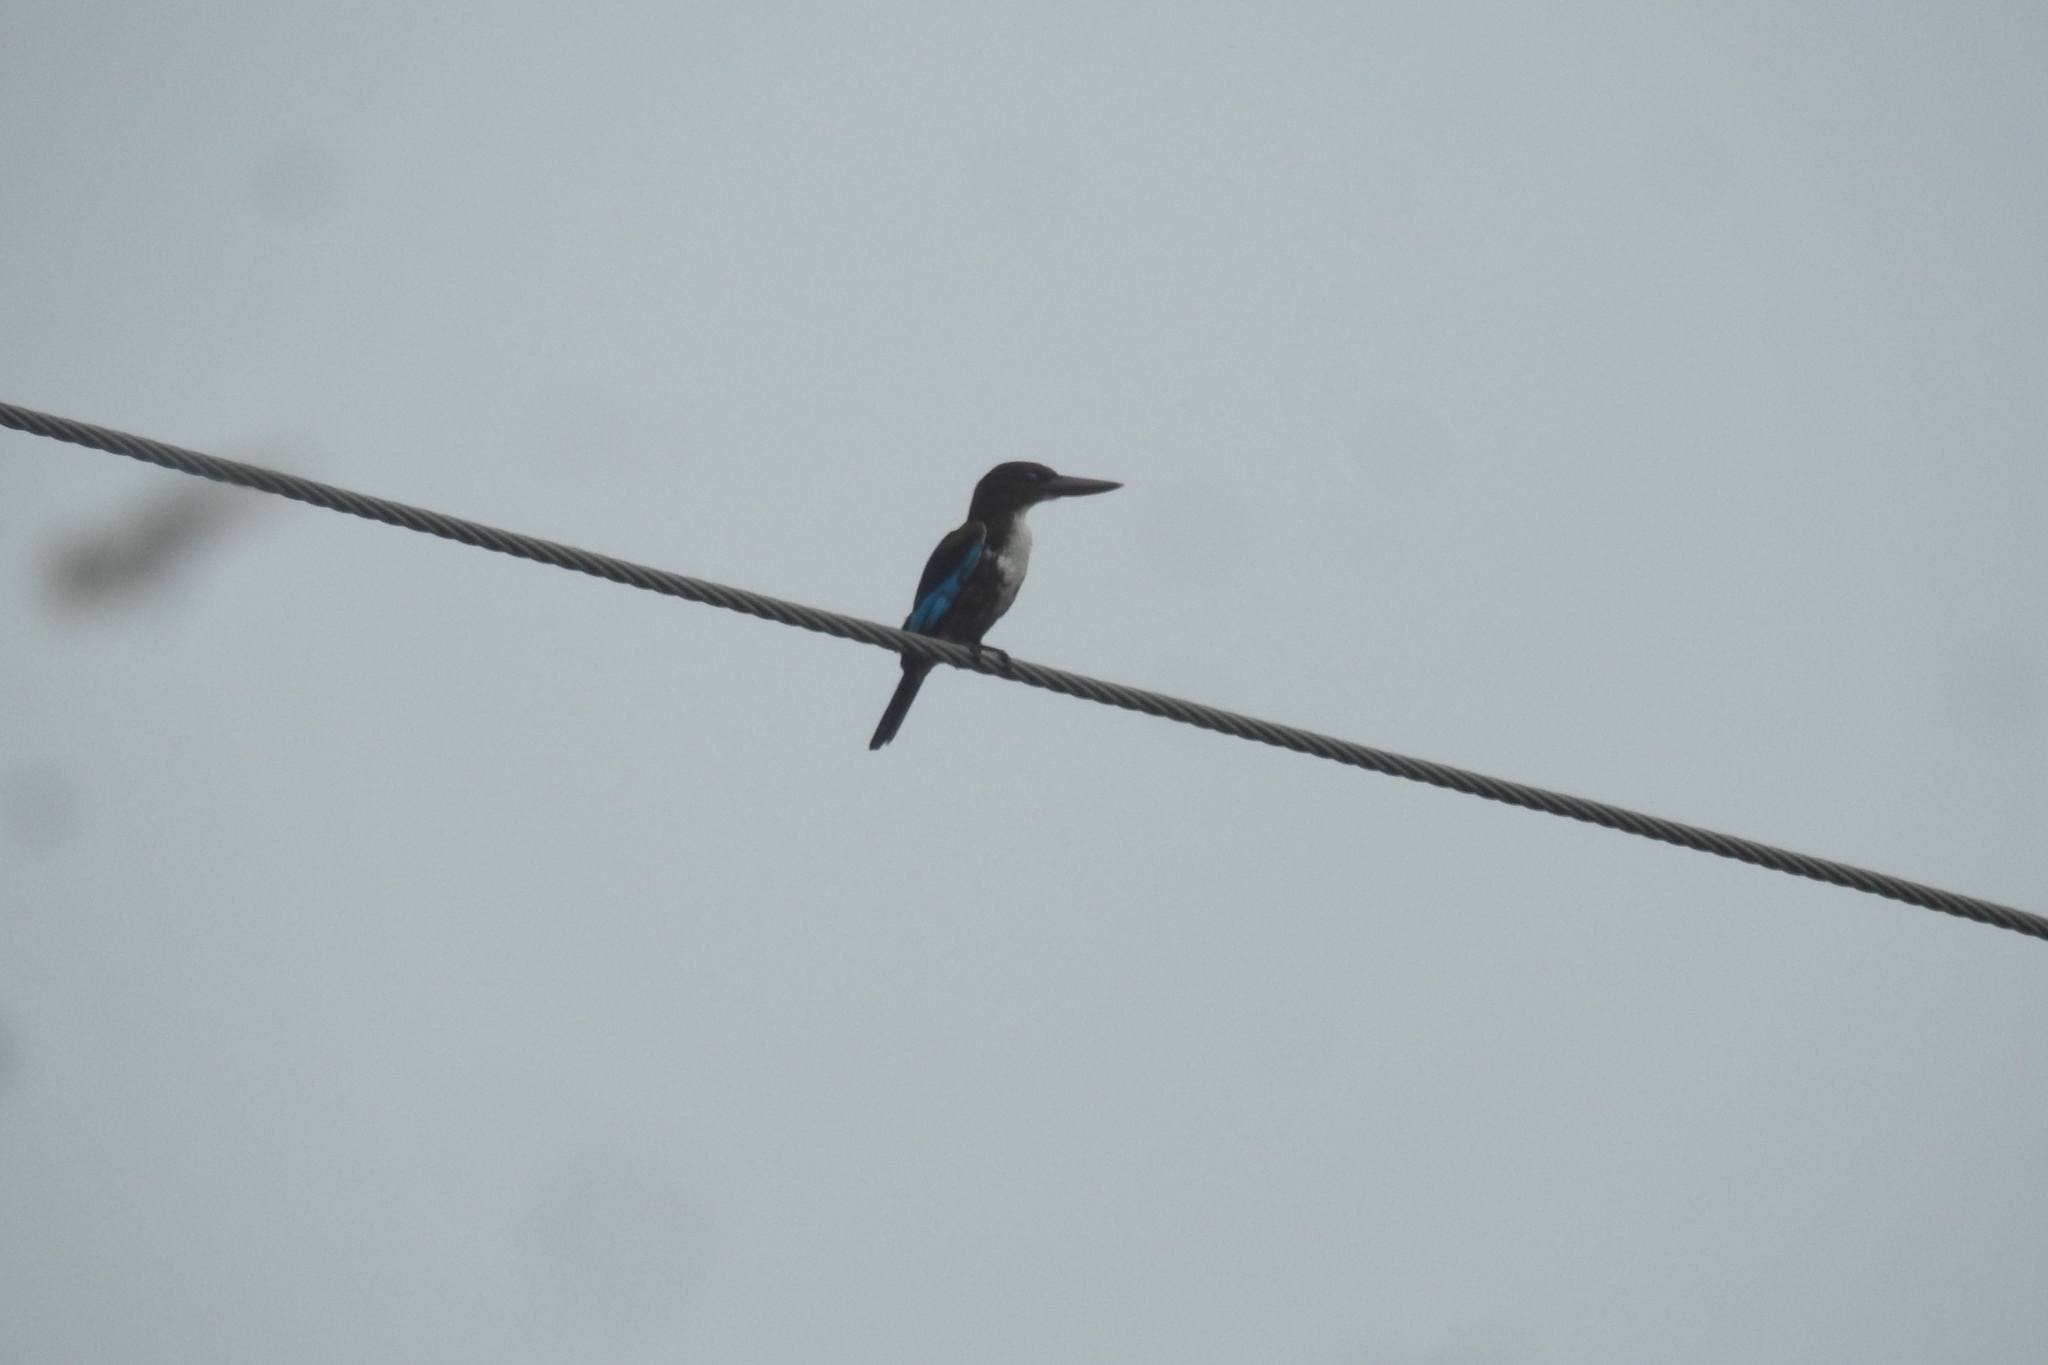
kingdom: Animalia
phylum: Chordata
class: Aves
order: Coraciiformes
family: Alcedinidae
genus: Halcyon
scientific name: Halcyon smyrnensis
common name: White-throated kingfisher
